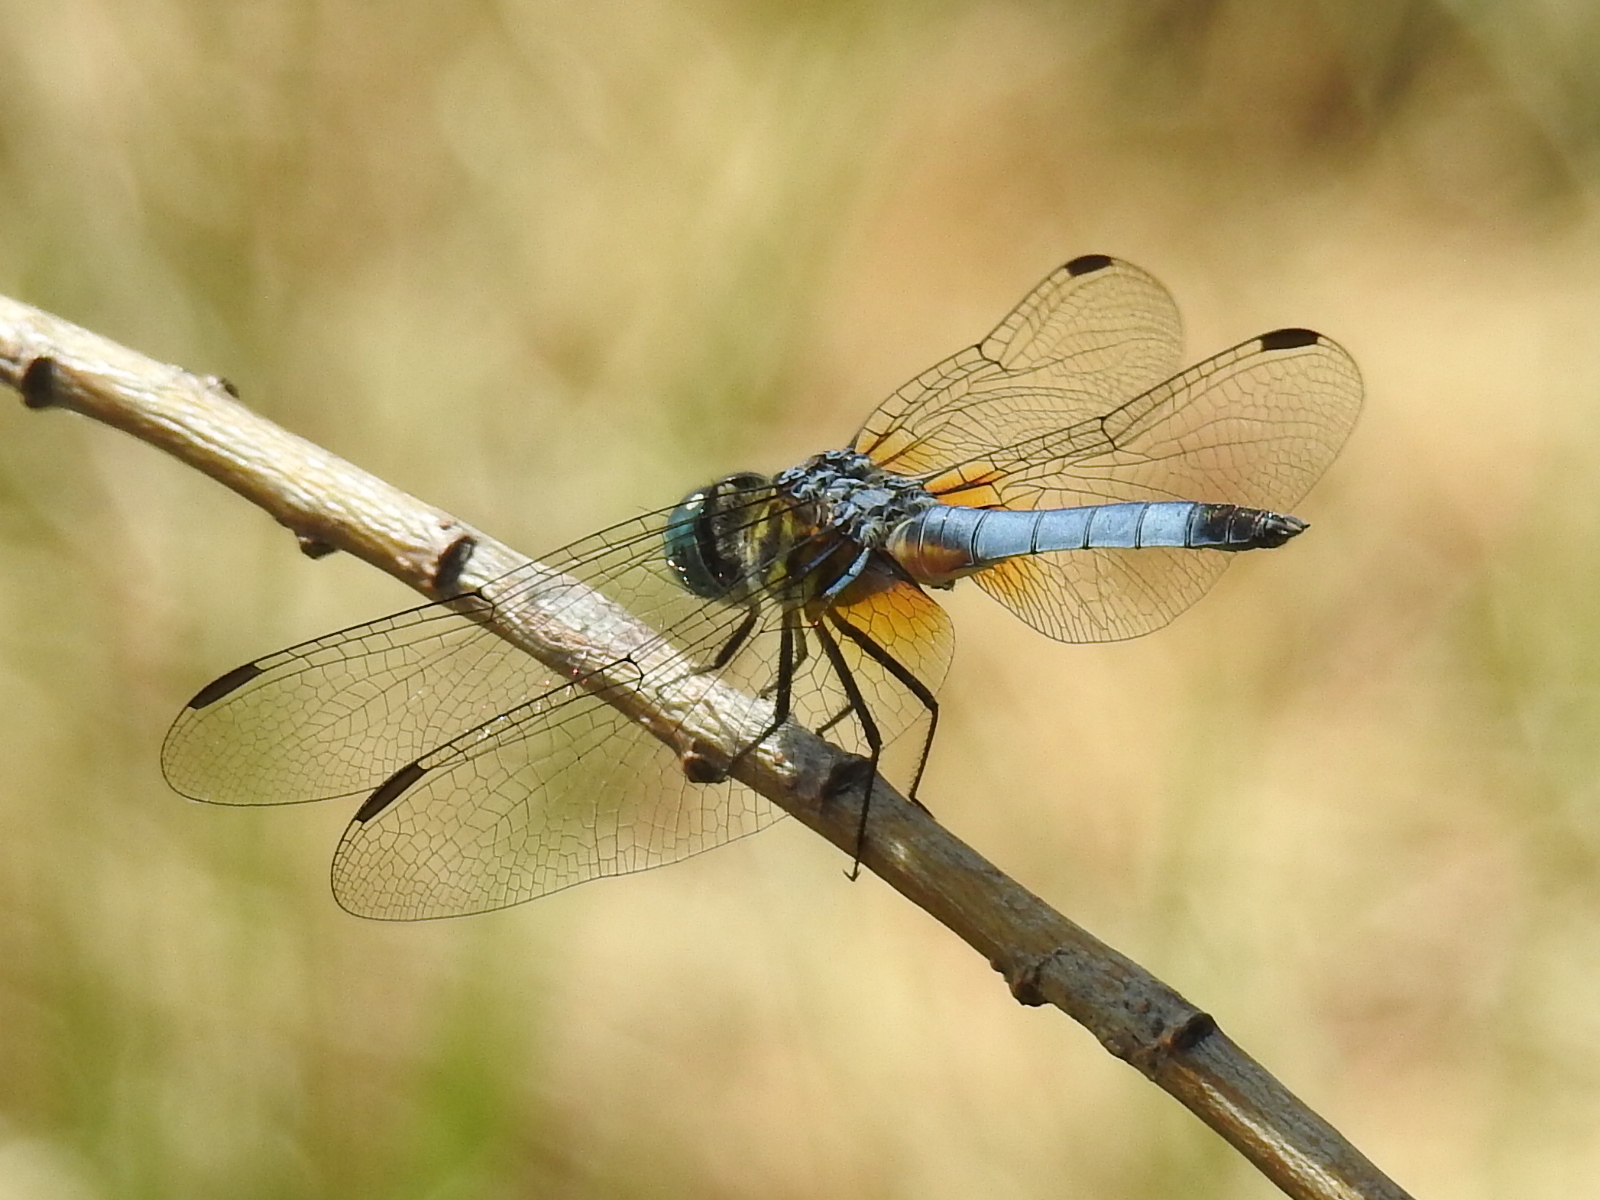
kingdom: Animalia
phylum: Arthropoda
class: Insecta
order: Odonata
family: Libellulidae
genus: Pachydiplax
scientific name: Pachydiplax longipennis
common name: Blue dasher
